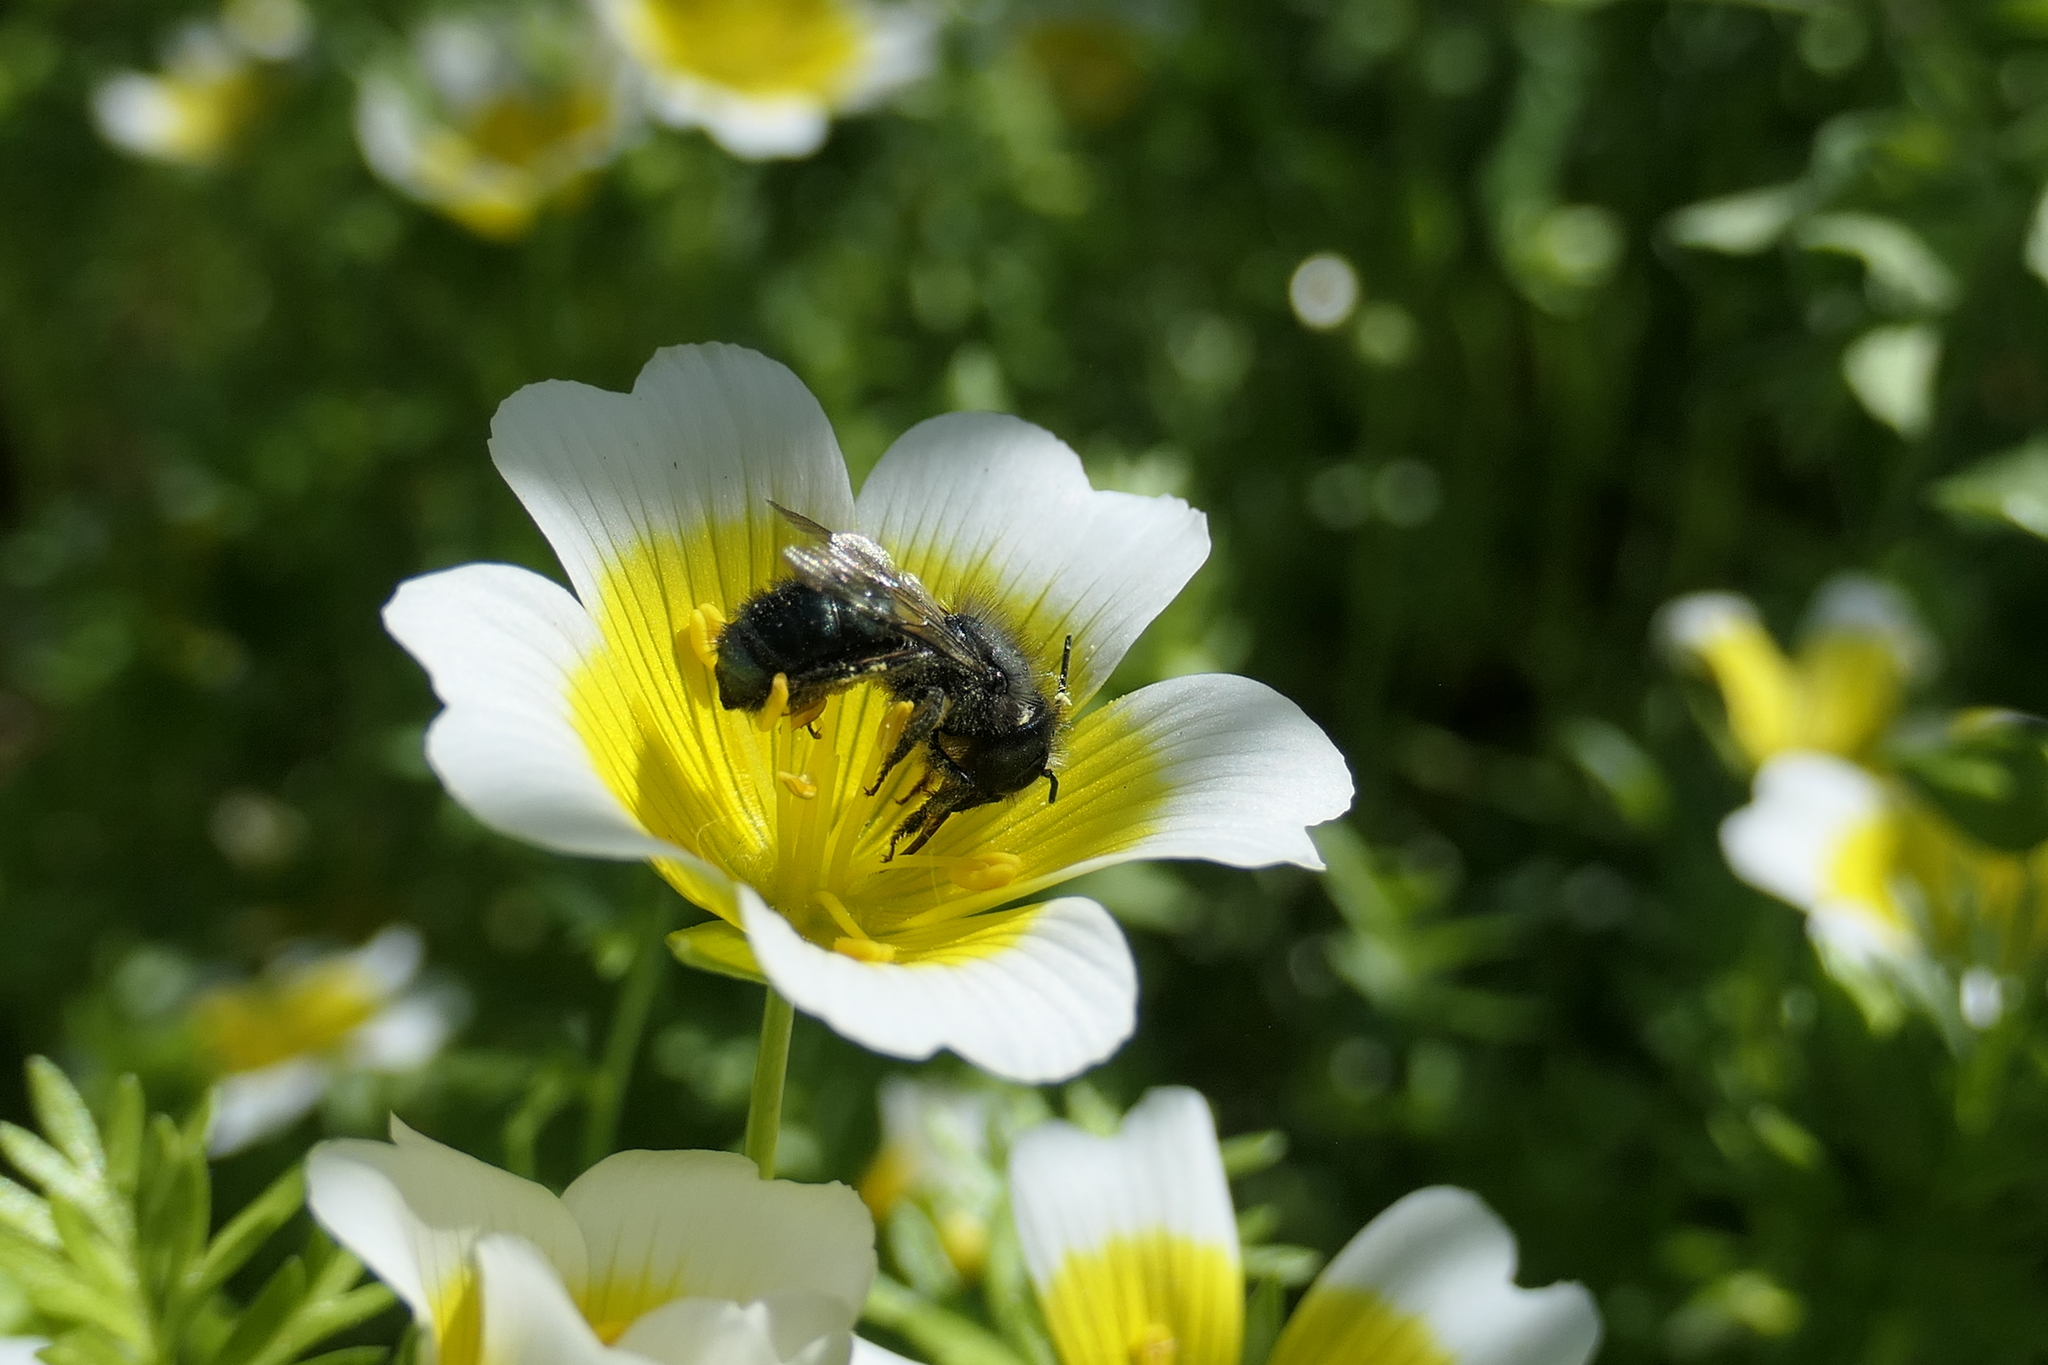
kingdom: Animalia
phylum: Arthropoda
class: Insecta
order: Hymenoptera
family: Megachilidae
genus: Osmia
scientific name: Osmia lignaria
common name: Blue orchard bee
